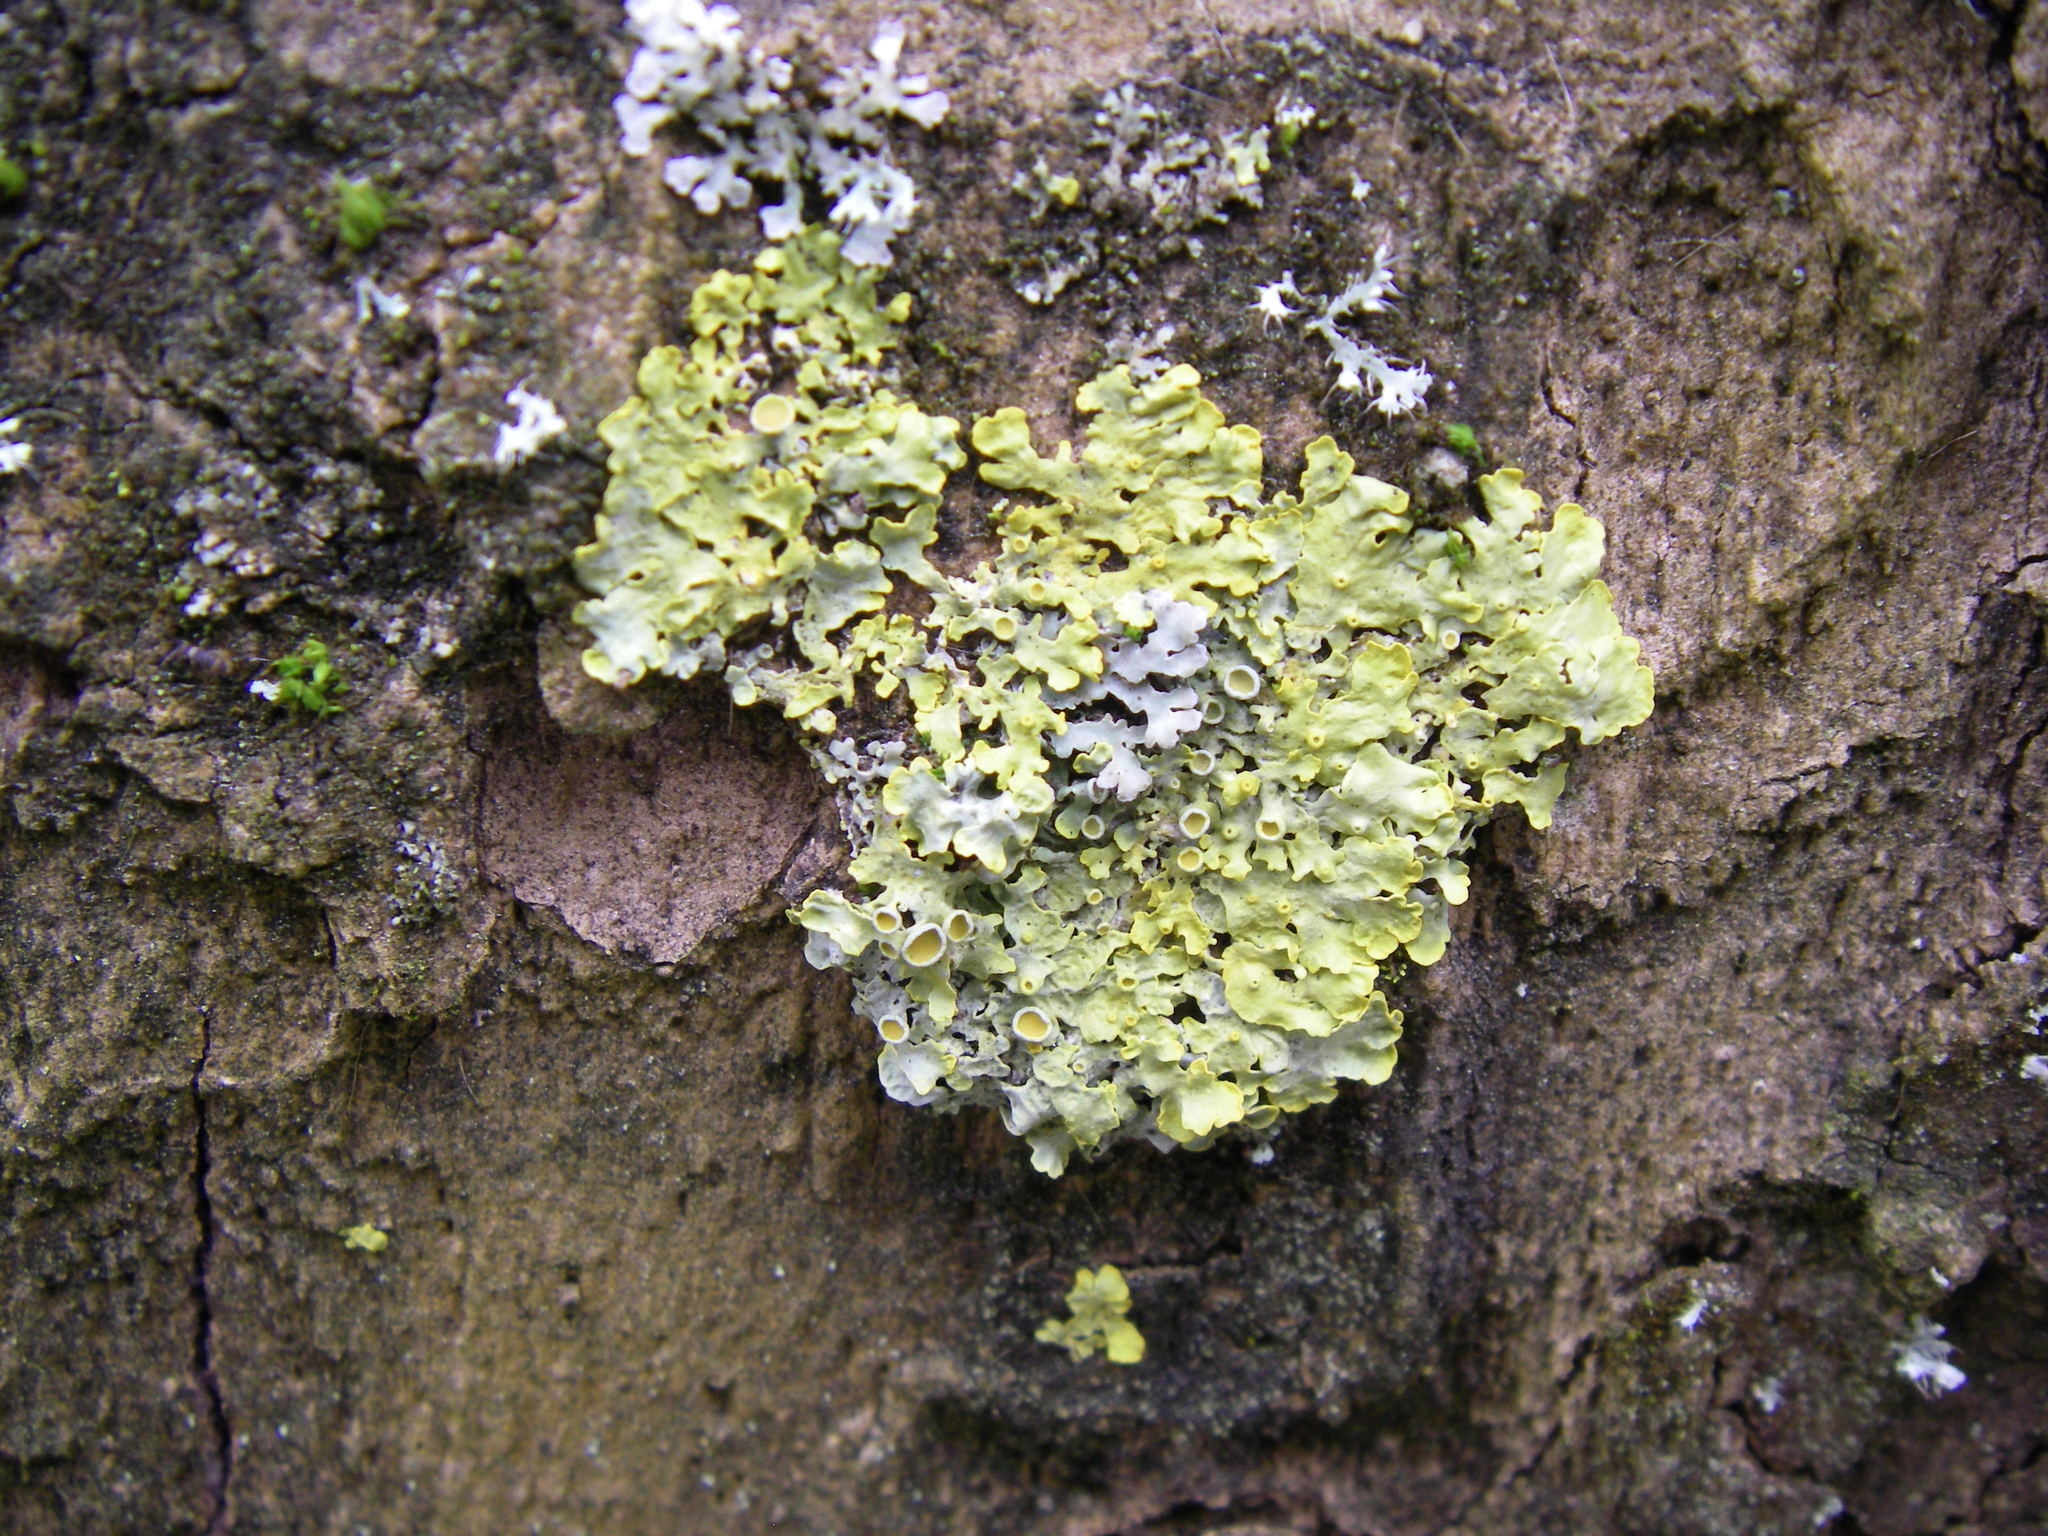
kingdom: Fungi
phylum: Ascomycota
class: Lecanoromycetes
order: Teloschistales
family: Teloschistaceae
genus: Xanthoria
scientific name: Xanthoria parietina
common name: Common orange lichen
